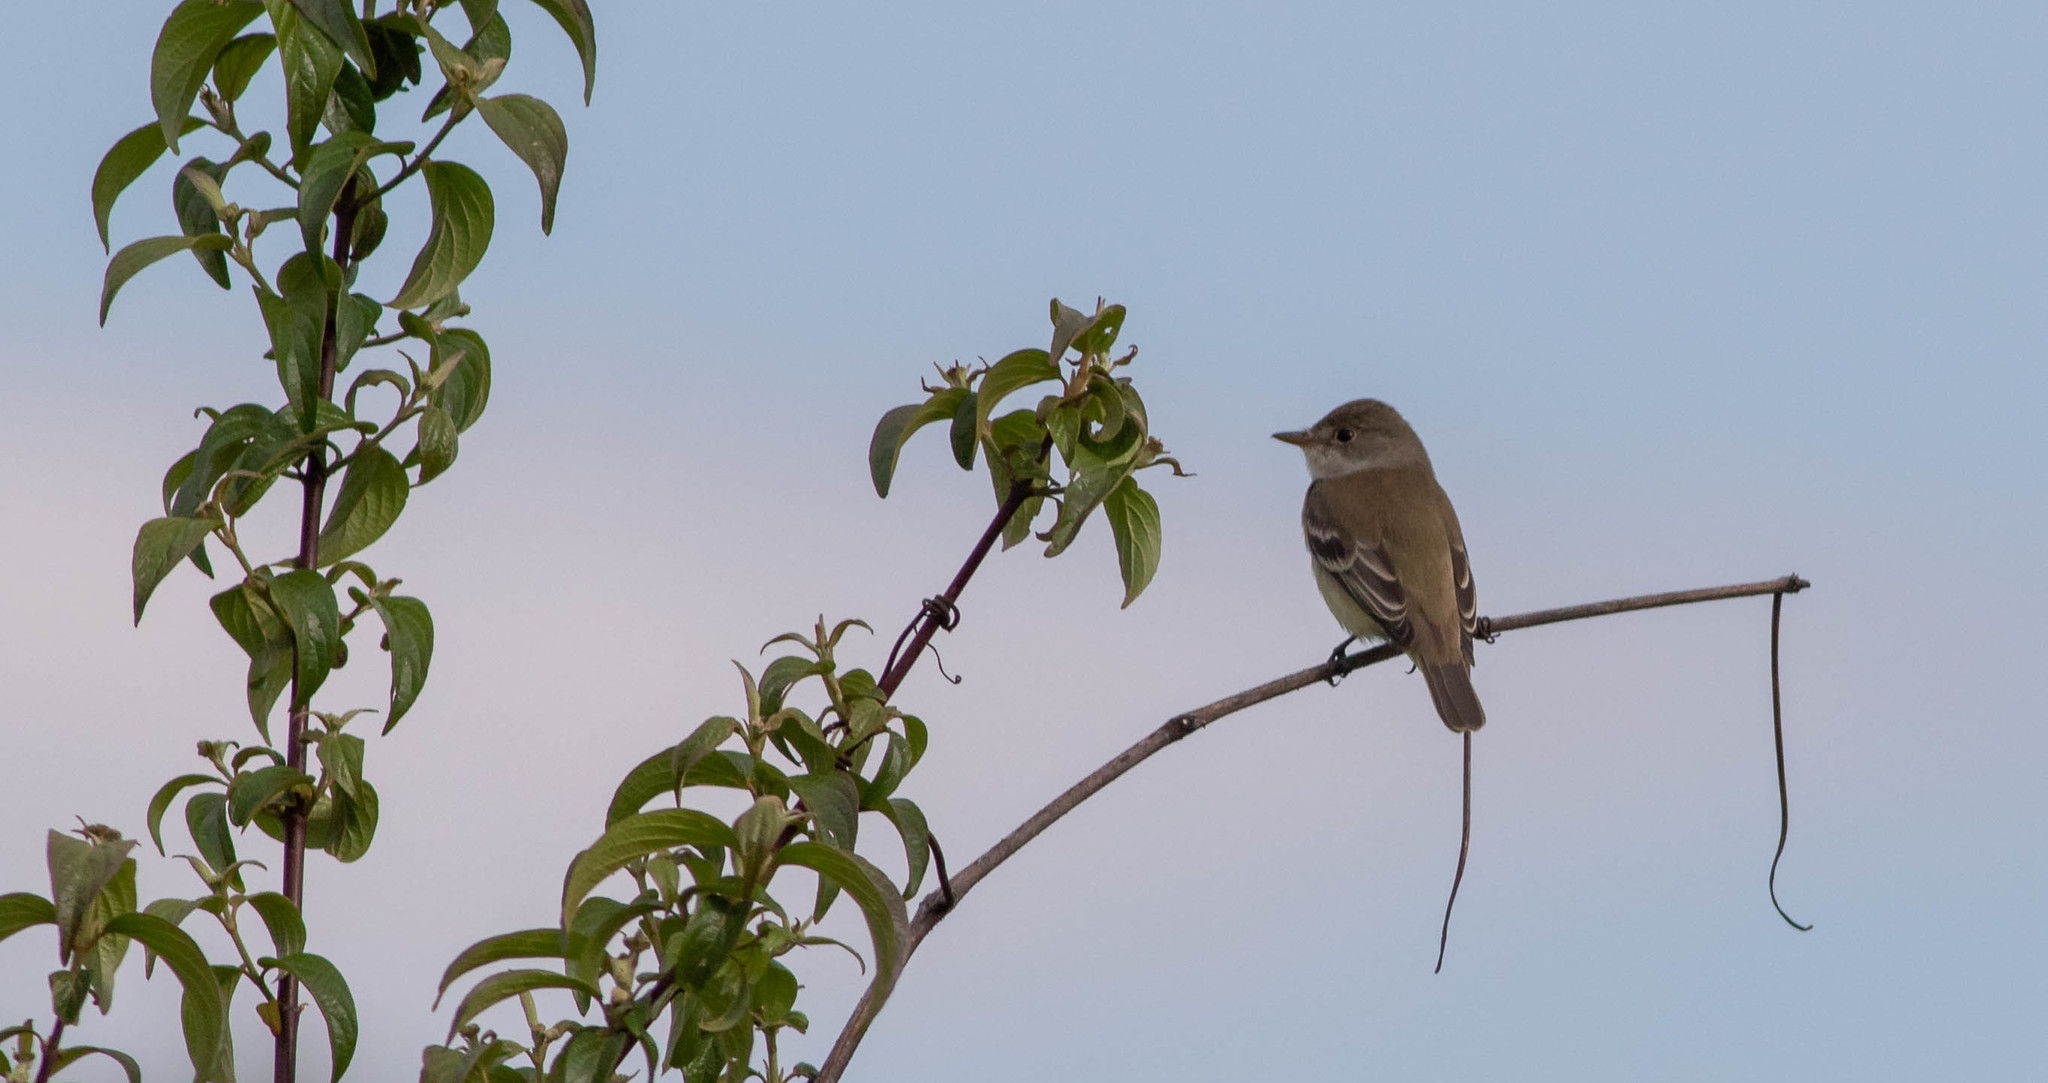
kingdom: Animalia
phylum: Chordata
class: Aves
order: Passeriformes
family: Tyrannidae
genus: Empidonax
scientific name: Empidonax traillii
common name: Willow flycatcher
